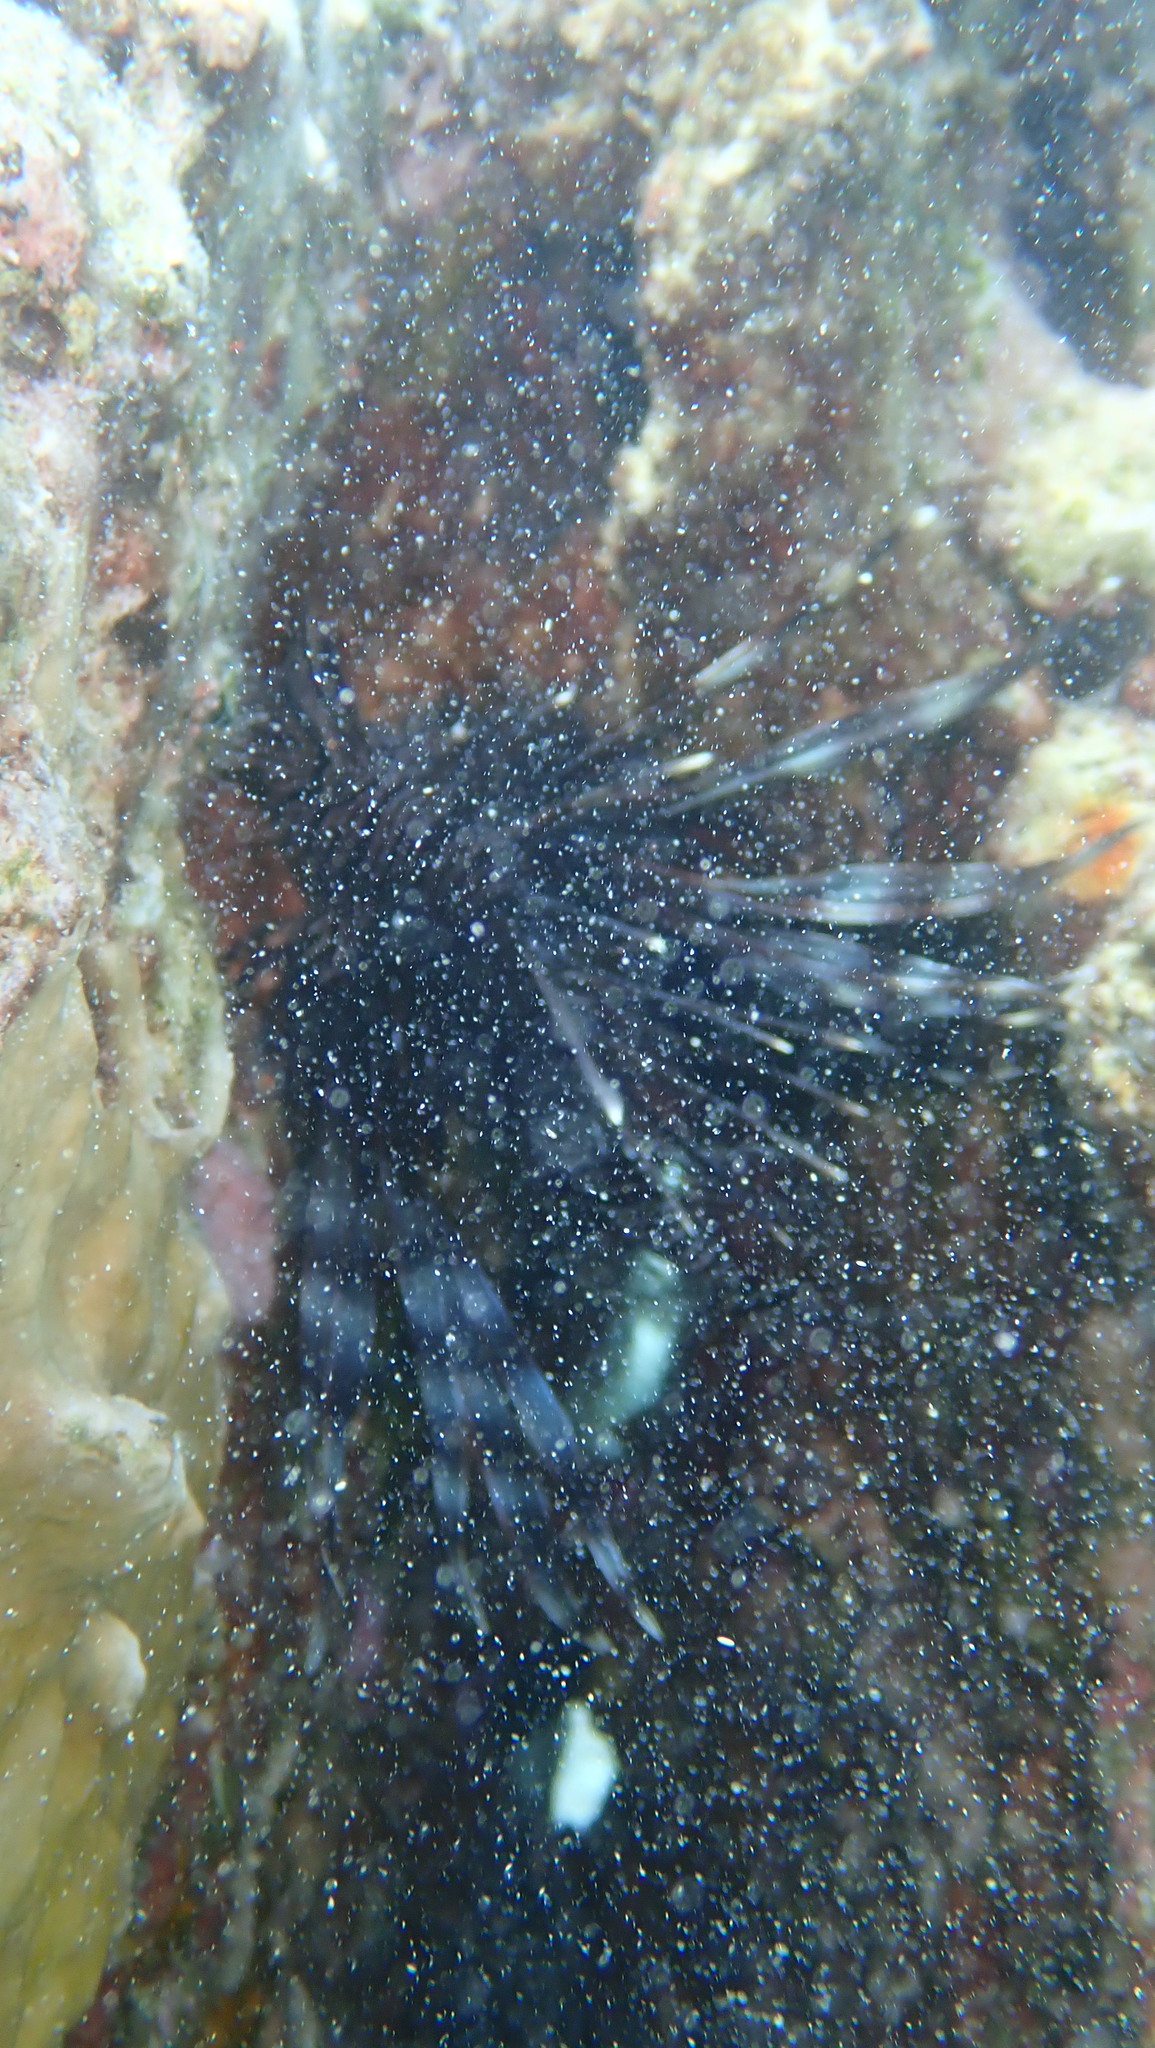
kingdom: Animalia
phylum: Chordata
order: Scorpaeniformes
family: Scorpaenidae
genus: Pterois
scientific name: Pterois volitans
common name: Lionfish
